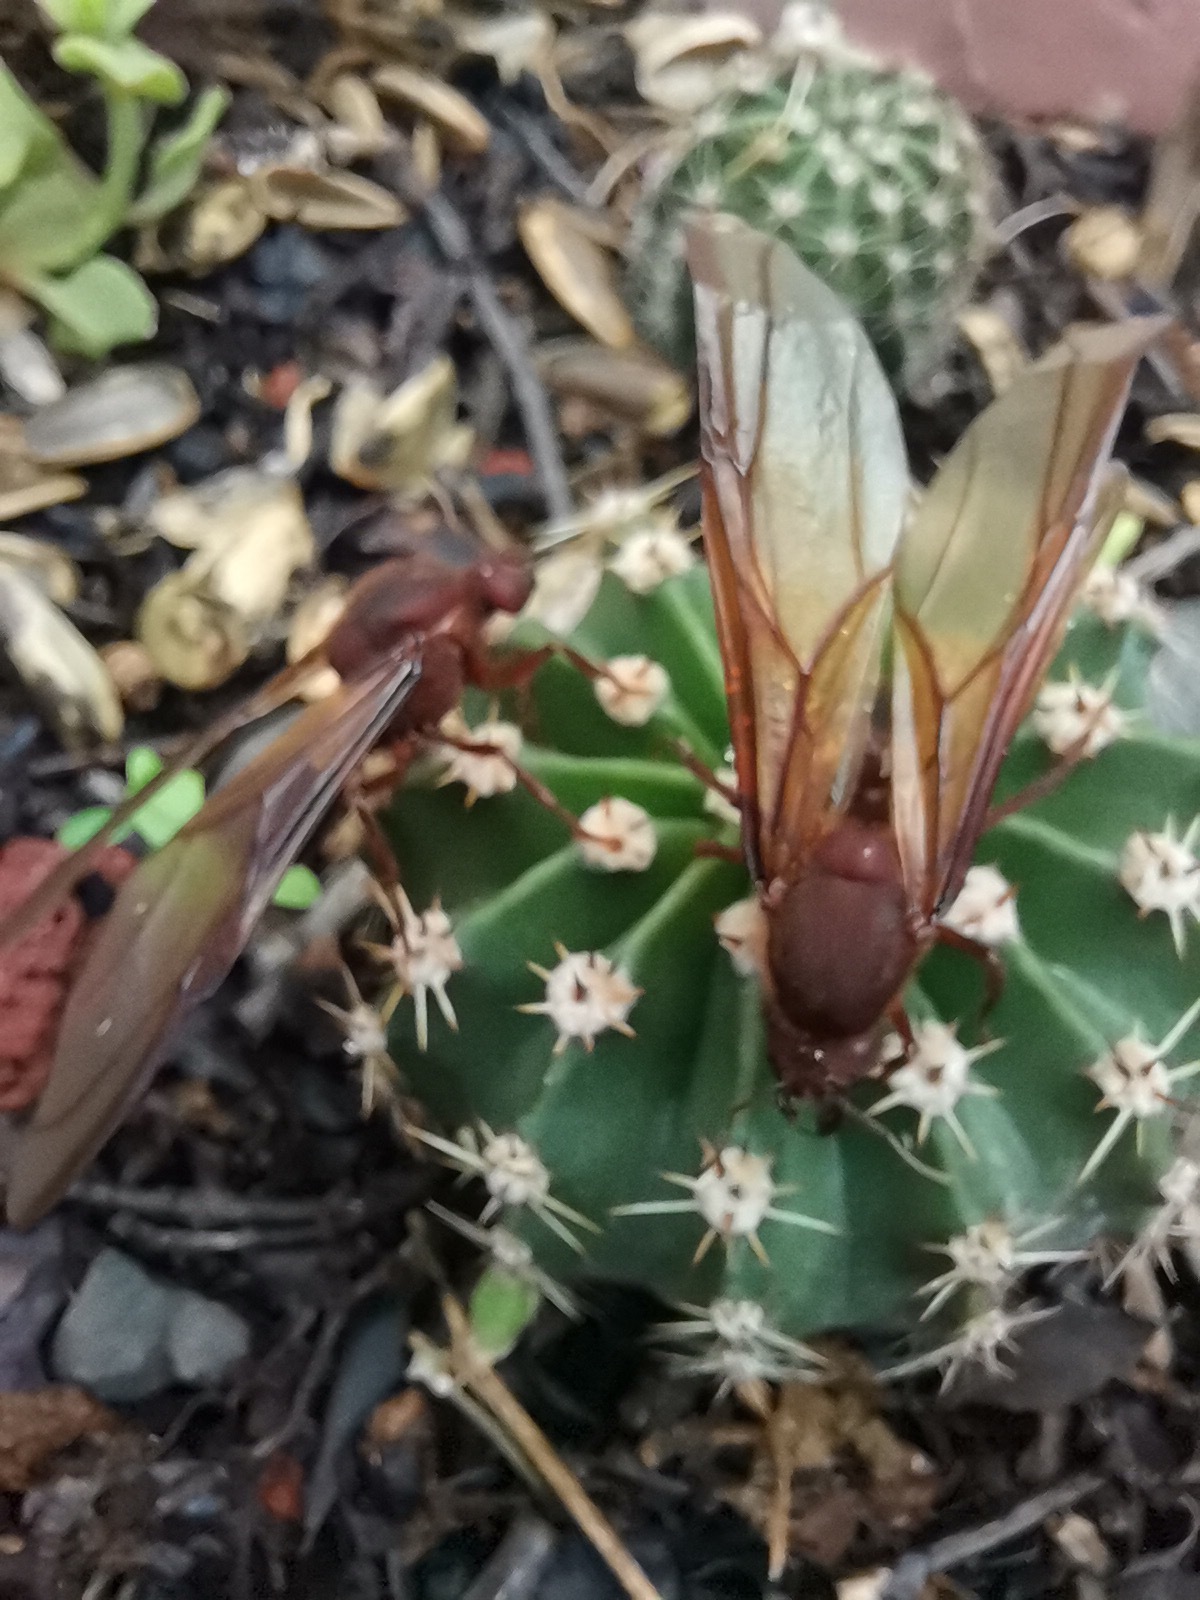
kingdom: Animalia
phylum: Arthropoda
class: Insecta
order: Hymenoptera
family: Formicidae
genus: Atta
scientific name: Atta mexicana
